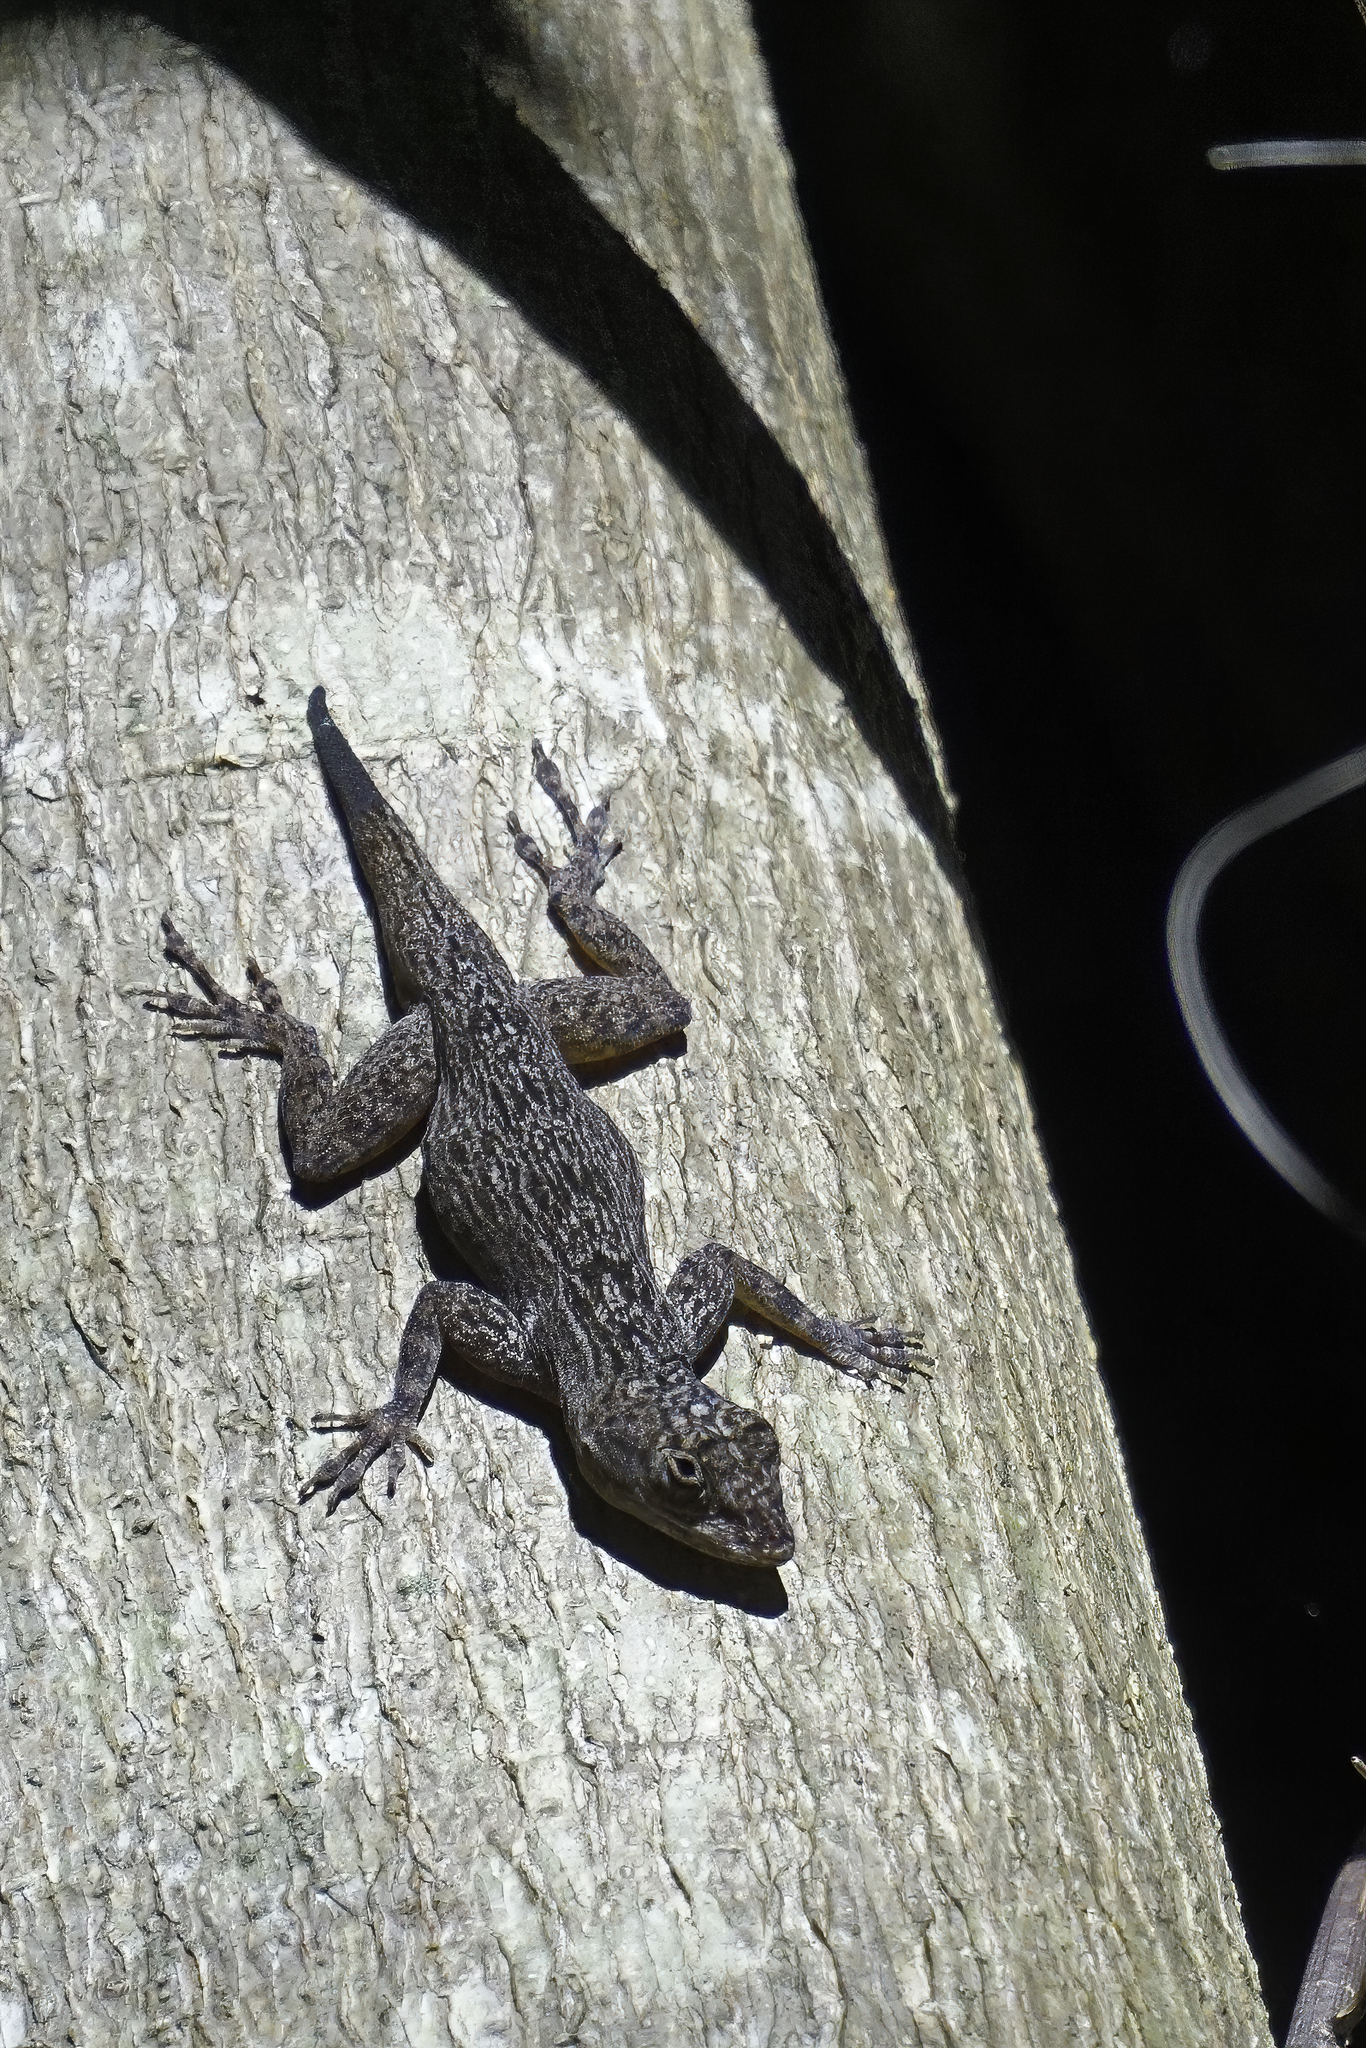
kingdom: Animalia
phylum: Chordata
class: Squamata
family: Dactyloidae
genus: Anolis
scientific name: Anolis distichus
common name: Bark anole
